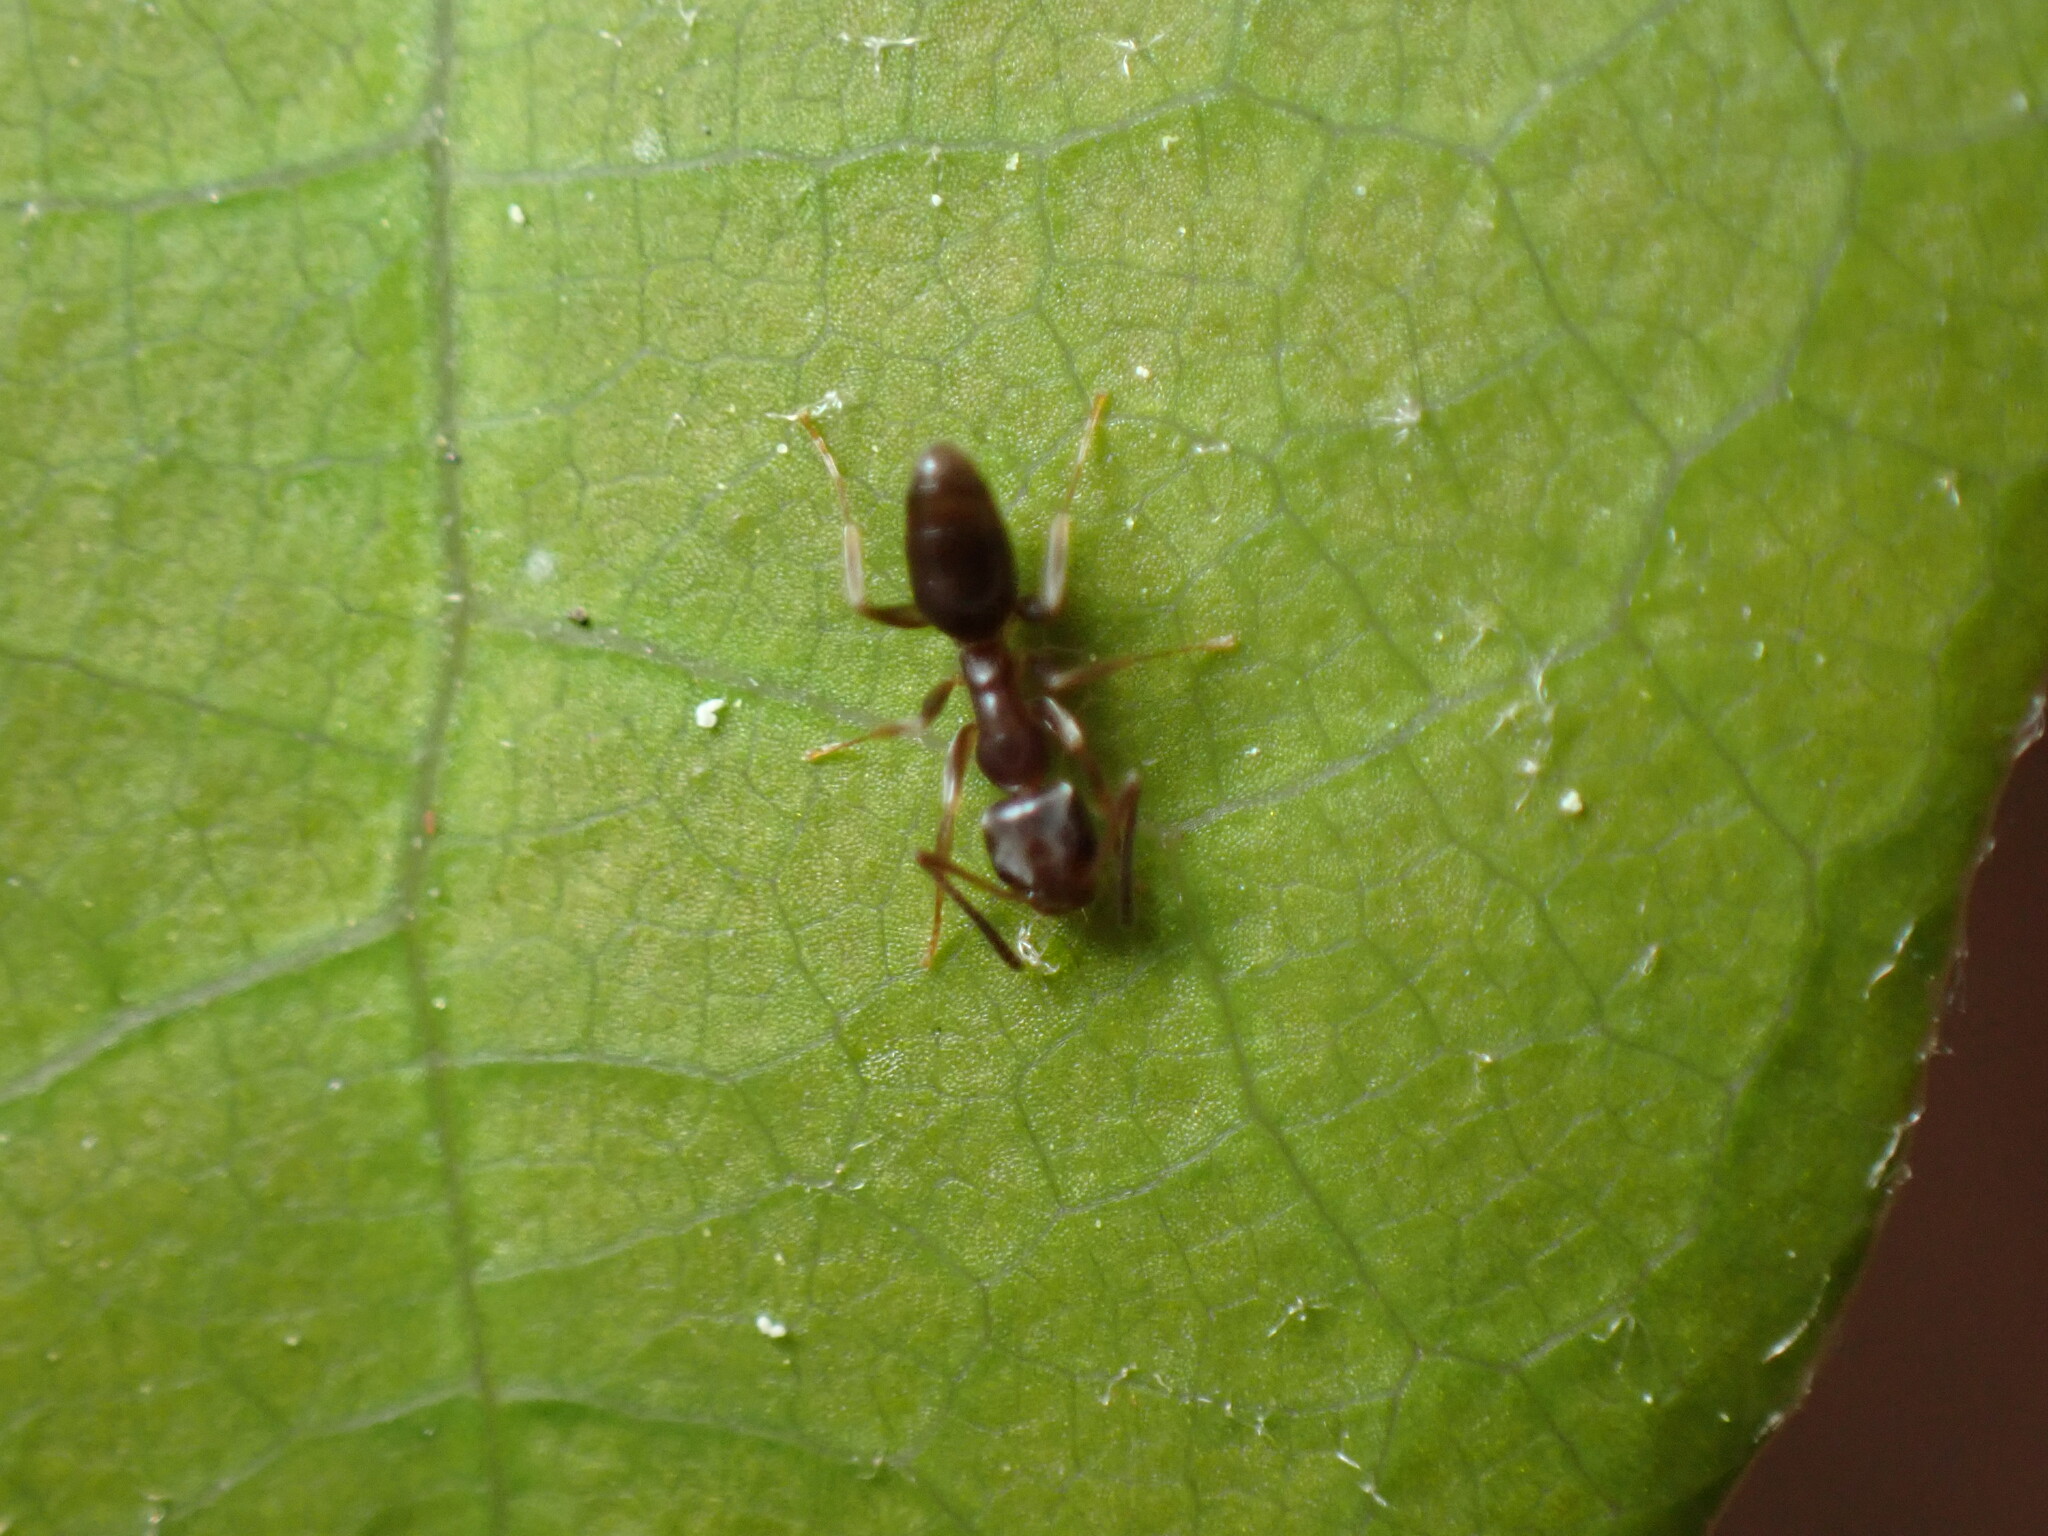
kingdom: Animalia
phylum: Arthropoda
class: Insecta
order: Hymenoptera
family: Formicidae
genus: Tapinoma
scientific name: Tapinoma sessile
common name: Odorous house ant
